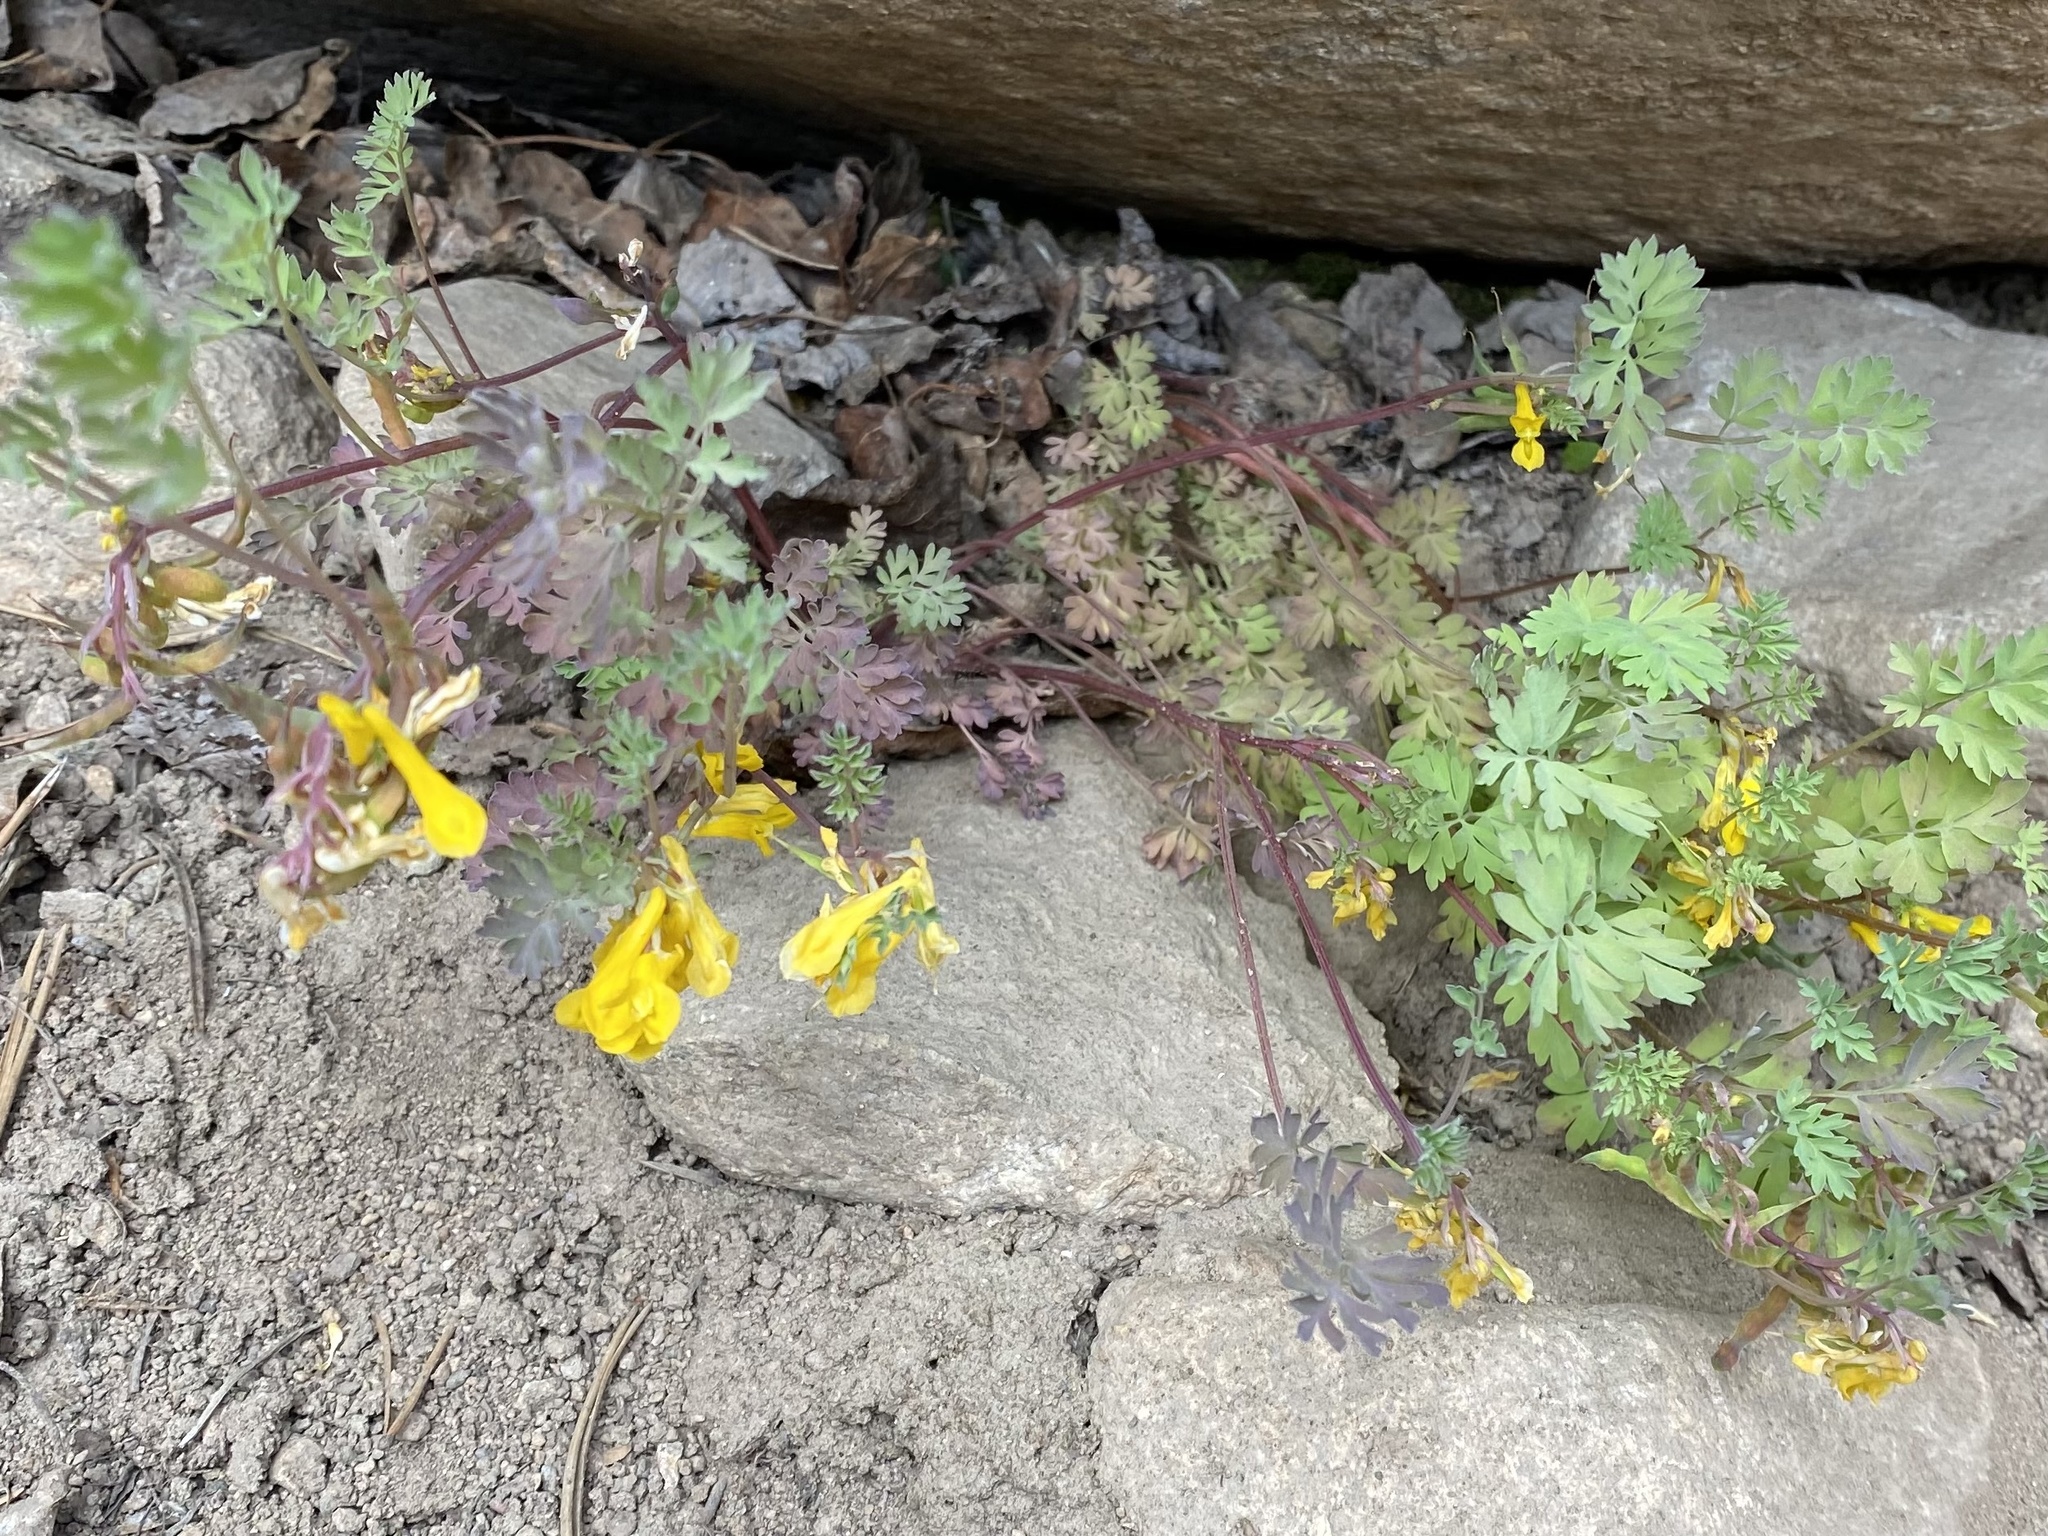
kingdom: Plantae
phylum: Tracheophyta
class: Magnoliopsida
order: Ranunculales
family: Papaveraceae
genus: Corydalis
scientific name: Corydalis aurea
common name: Golden corydalis
